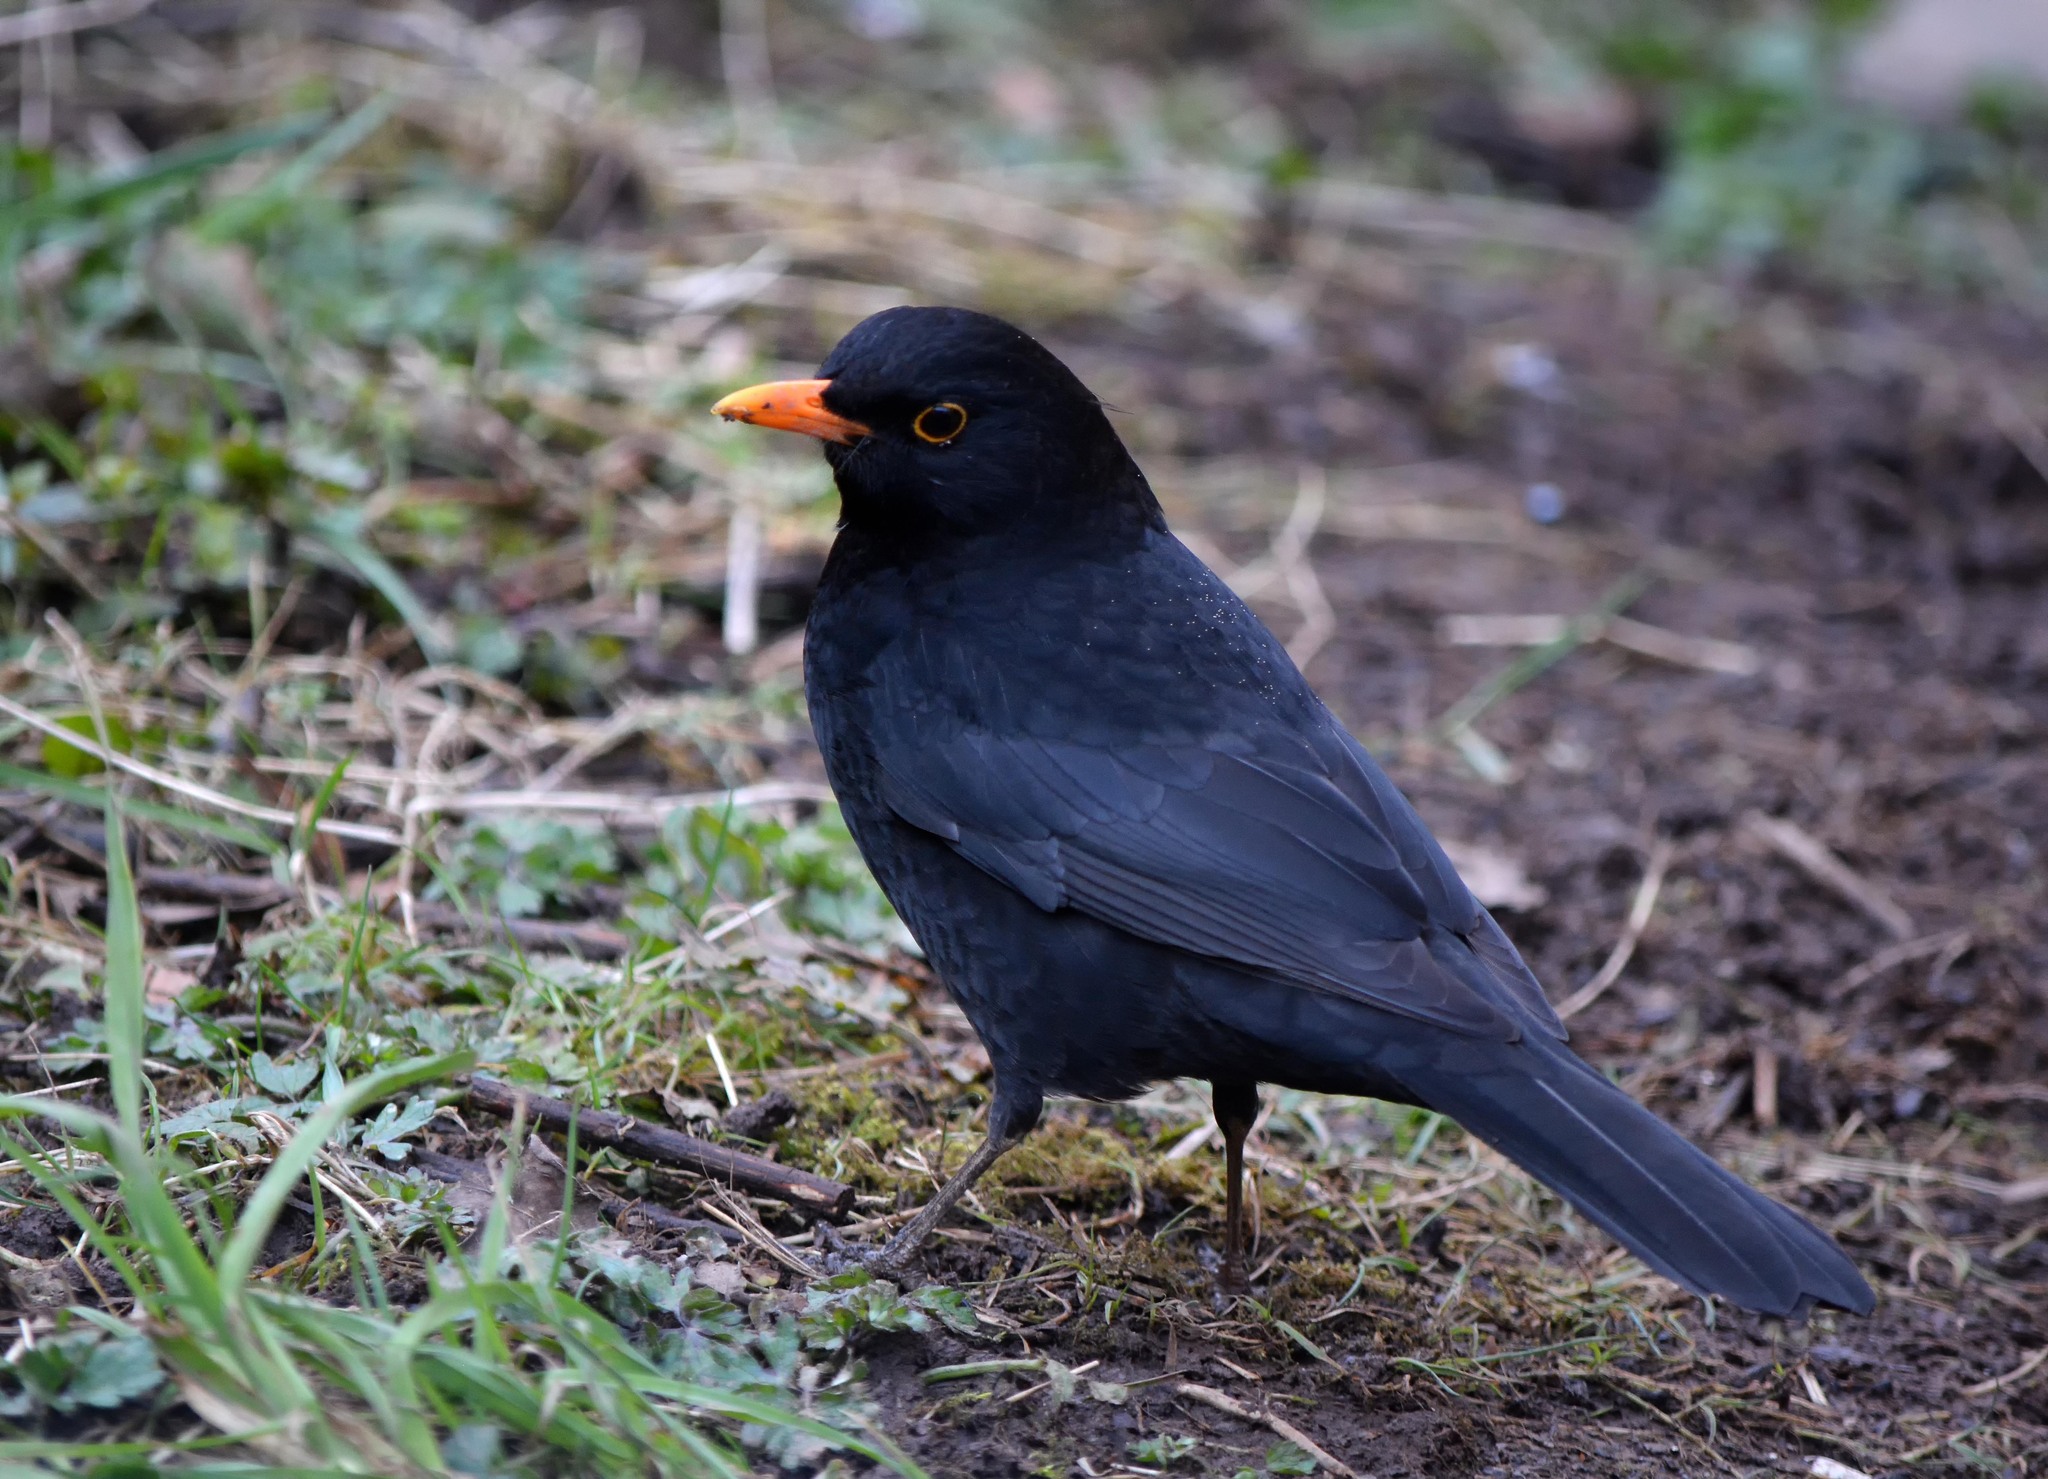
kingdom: Animalia
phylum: Chordata
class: Aves
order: Passeriformes
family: Turdidae
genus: Turdus
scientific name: Turdus merula
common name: Common blackbird
